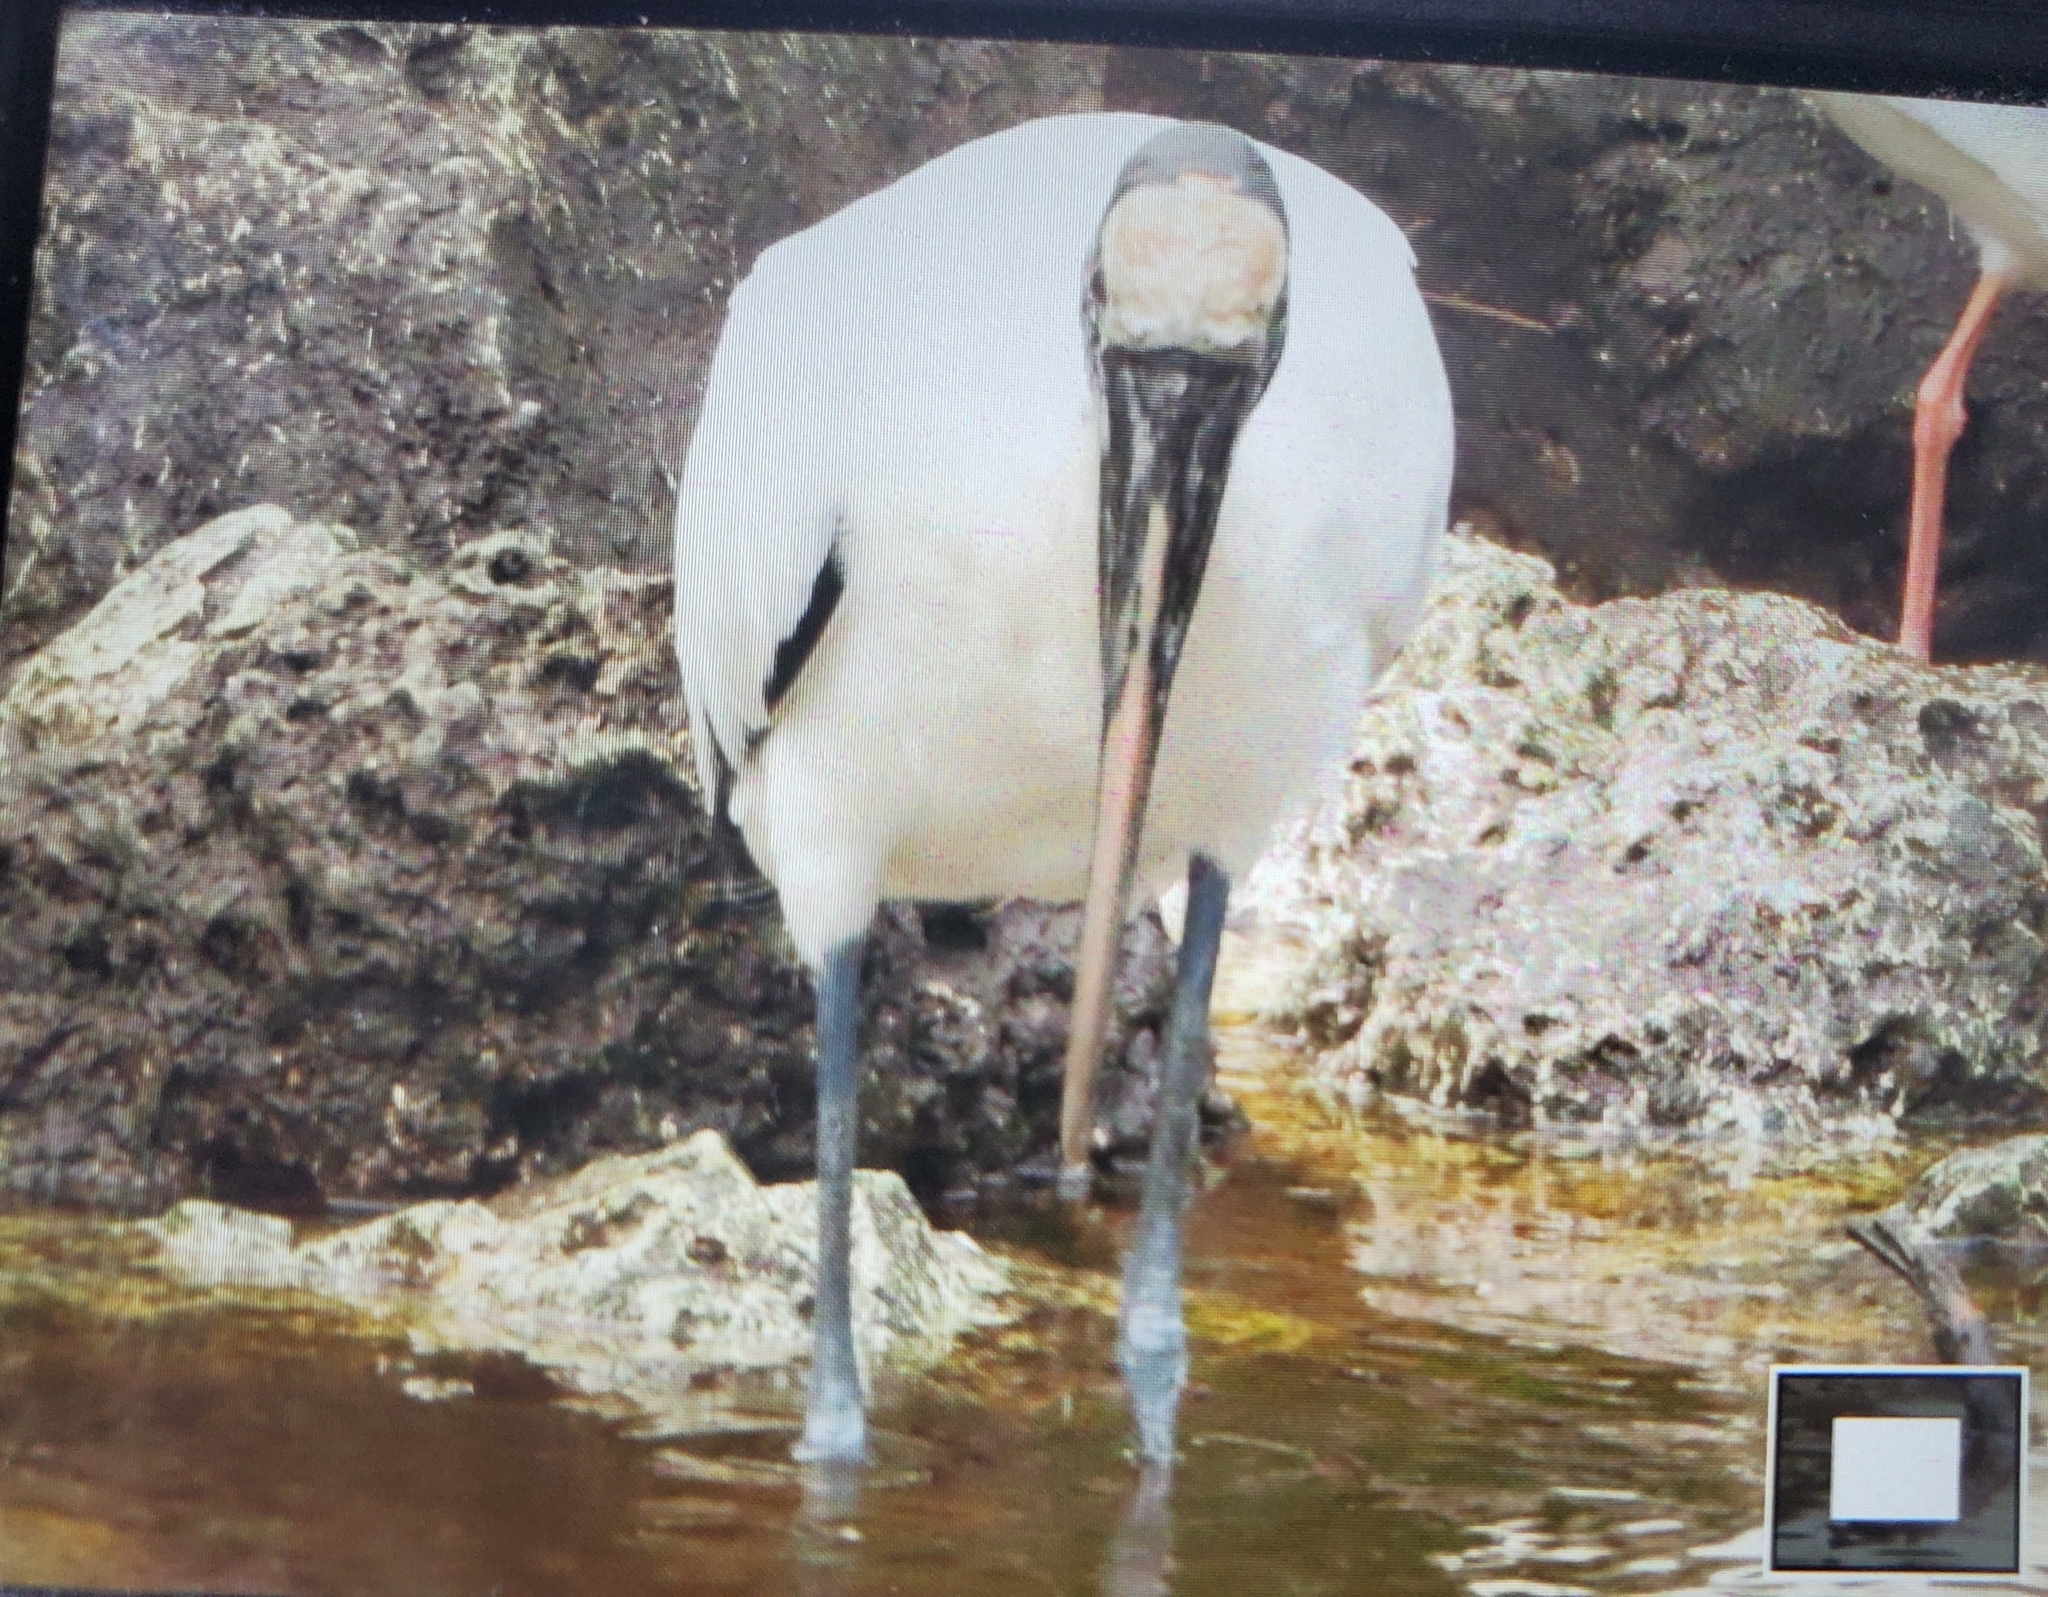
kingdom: Animalia
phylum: Chordata
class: Aves
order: Ciconiiformes
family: Ciconiidae
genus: Mycteria
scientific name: Mycteria americana
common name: Wood stork
